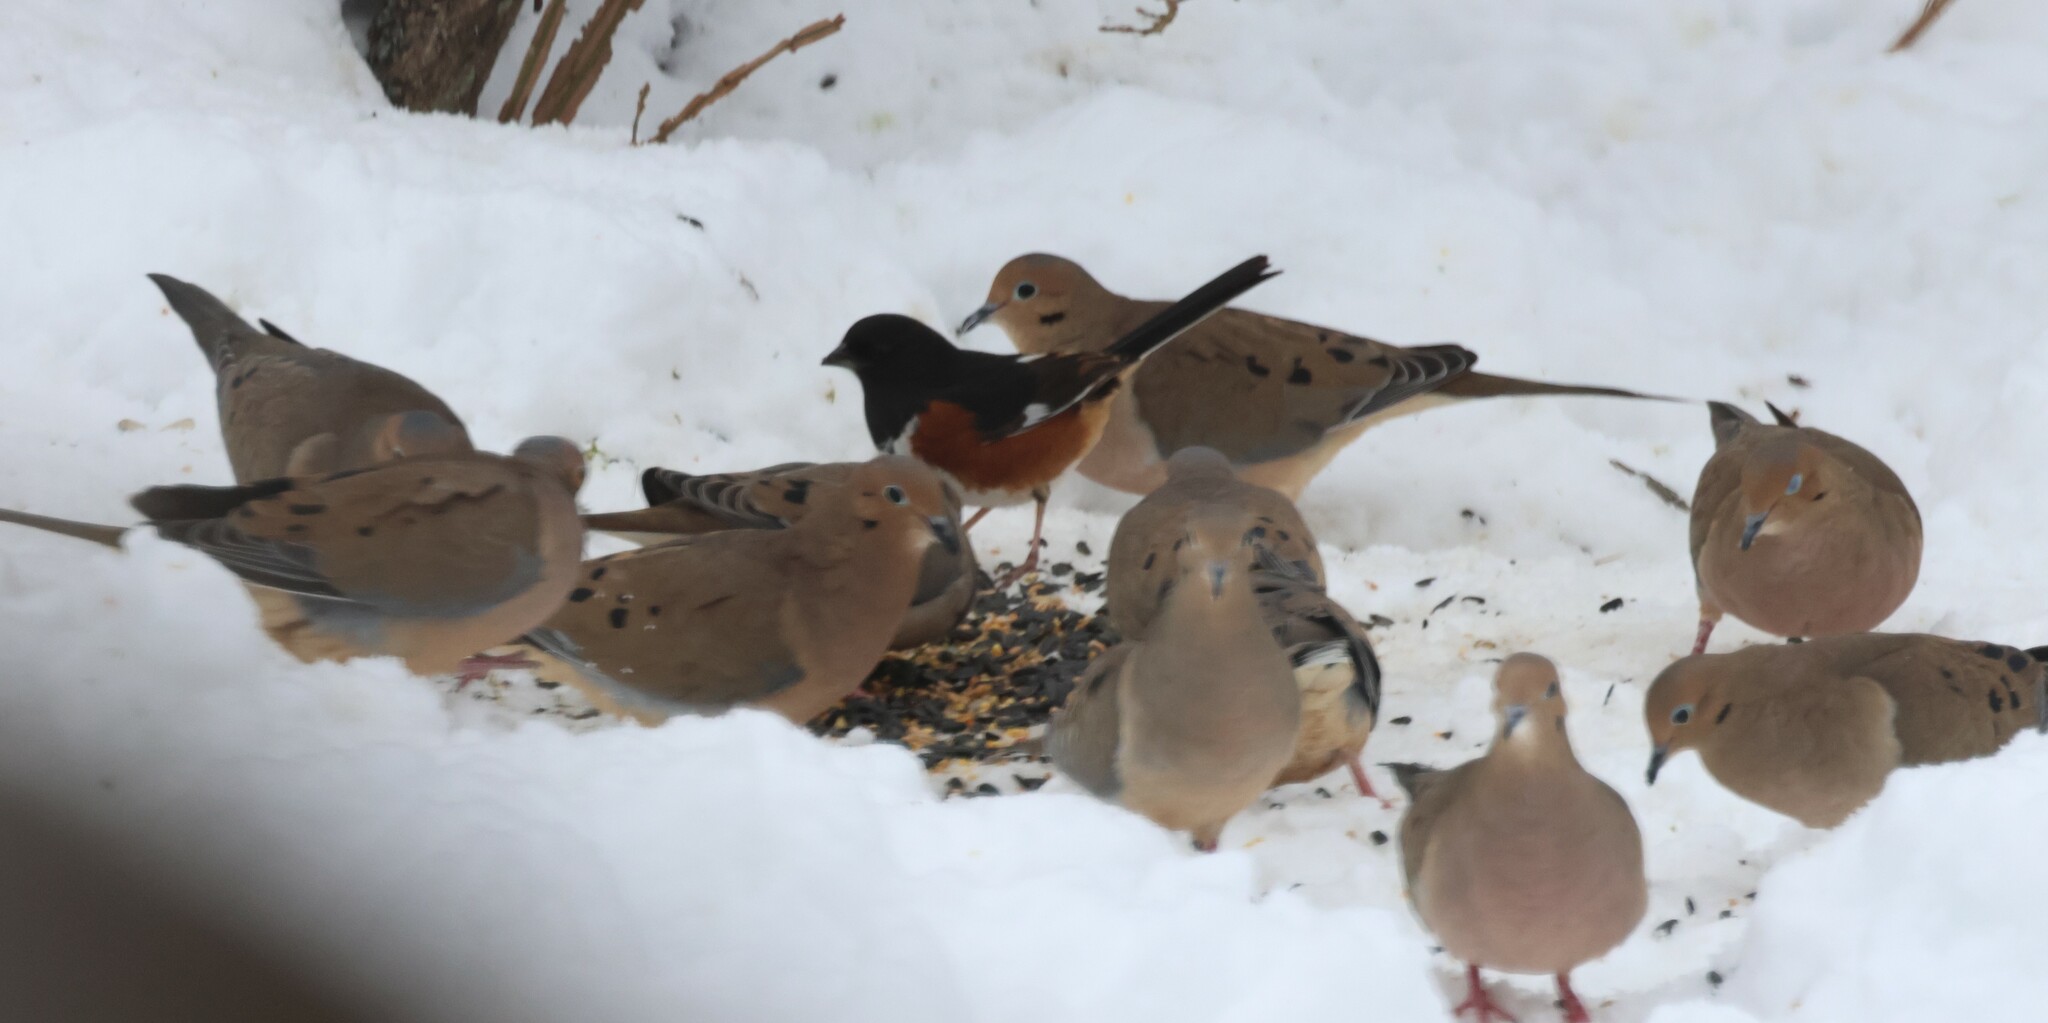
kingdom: Animalia
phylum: Chordata
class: Aves
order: Columbiformes
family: Columbidae
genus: Zenaida
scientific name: Zenaida macroura
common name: Mourning dove
